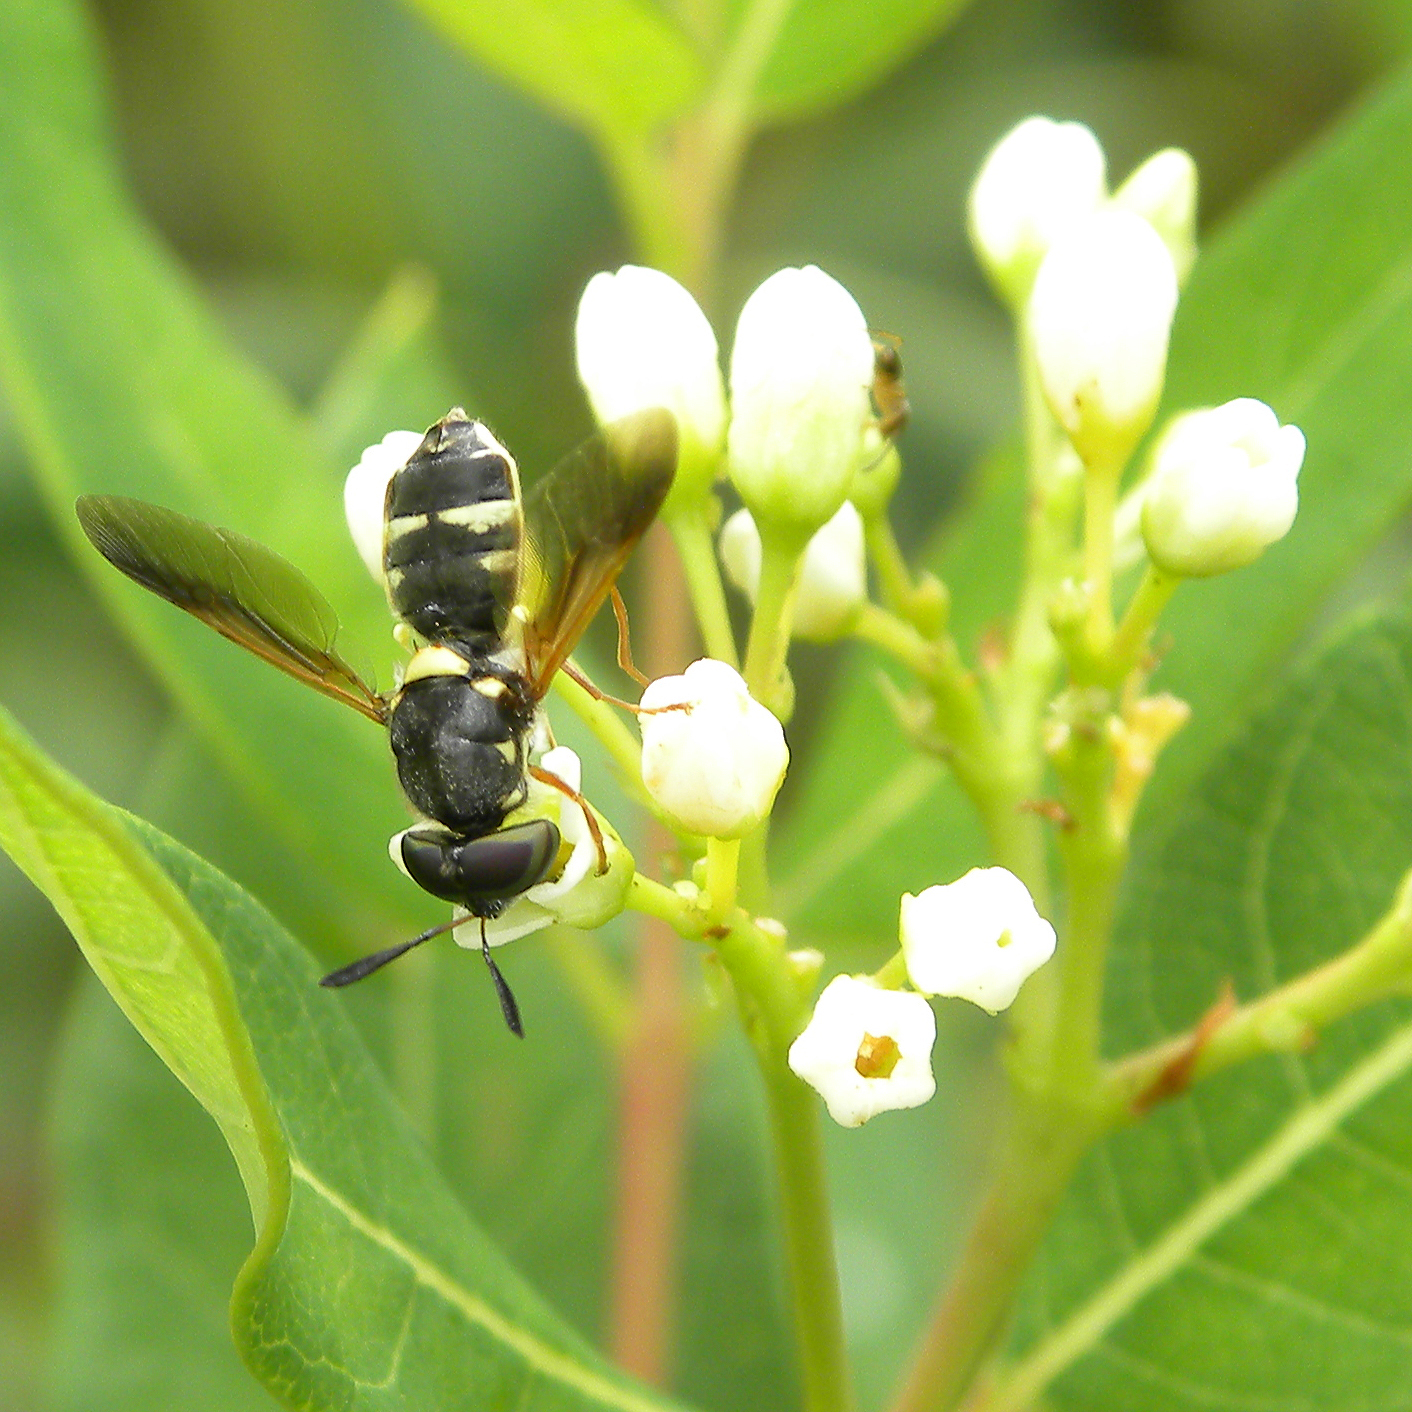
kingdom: Animalia
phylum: Arthropoda
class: Insecta
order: Diptera
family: Stratiomyidae
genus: Hoplitimyia
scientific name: Hoplitimyia constans
